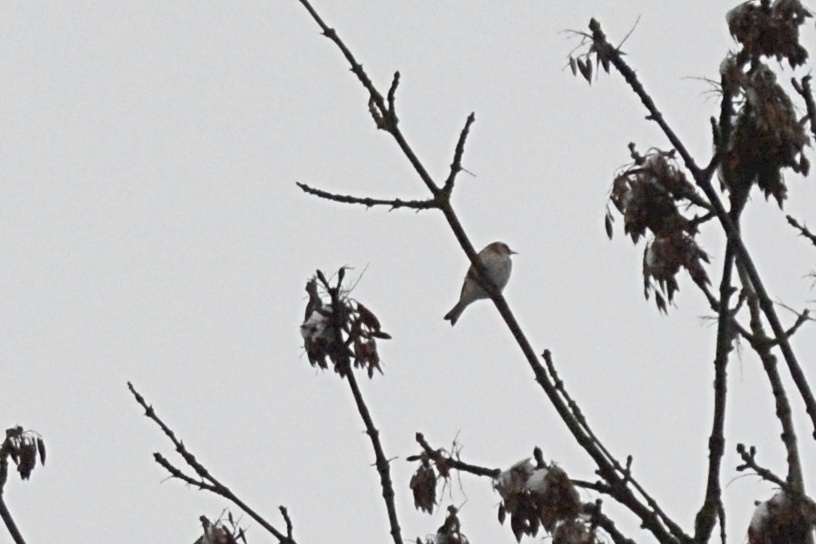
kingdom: Animalia
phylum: Chordata
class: Aves
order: Passeriformes
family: Fringillidae
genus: Carduelis
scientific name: Carduelis carduelis
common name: European goldfinch
